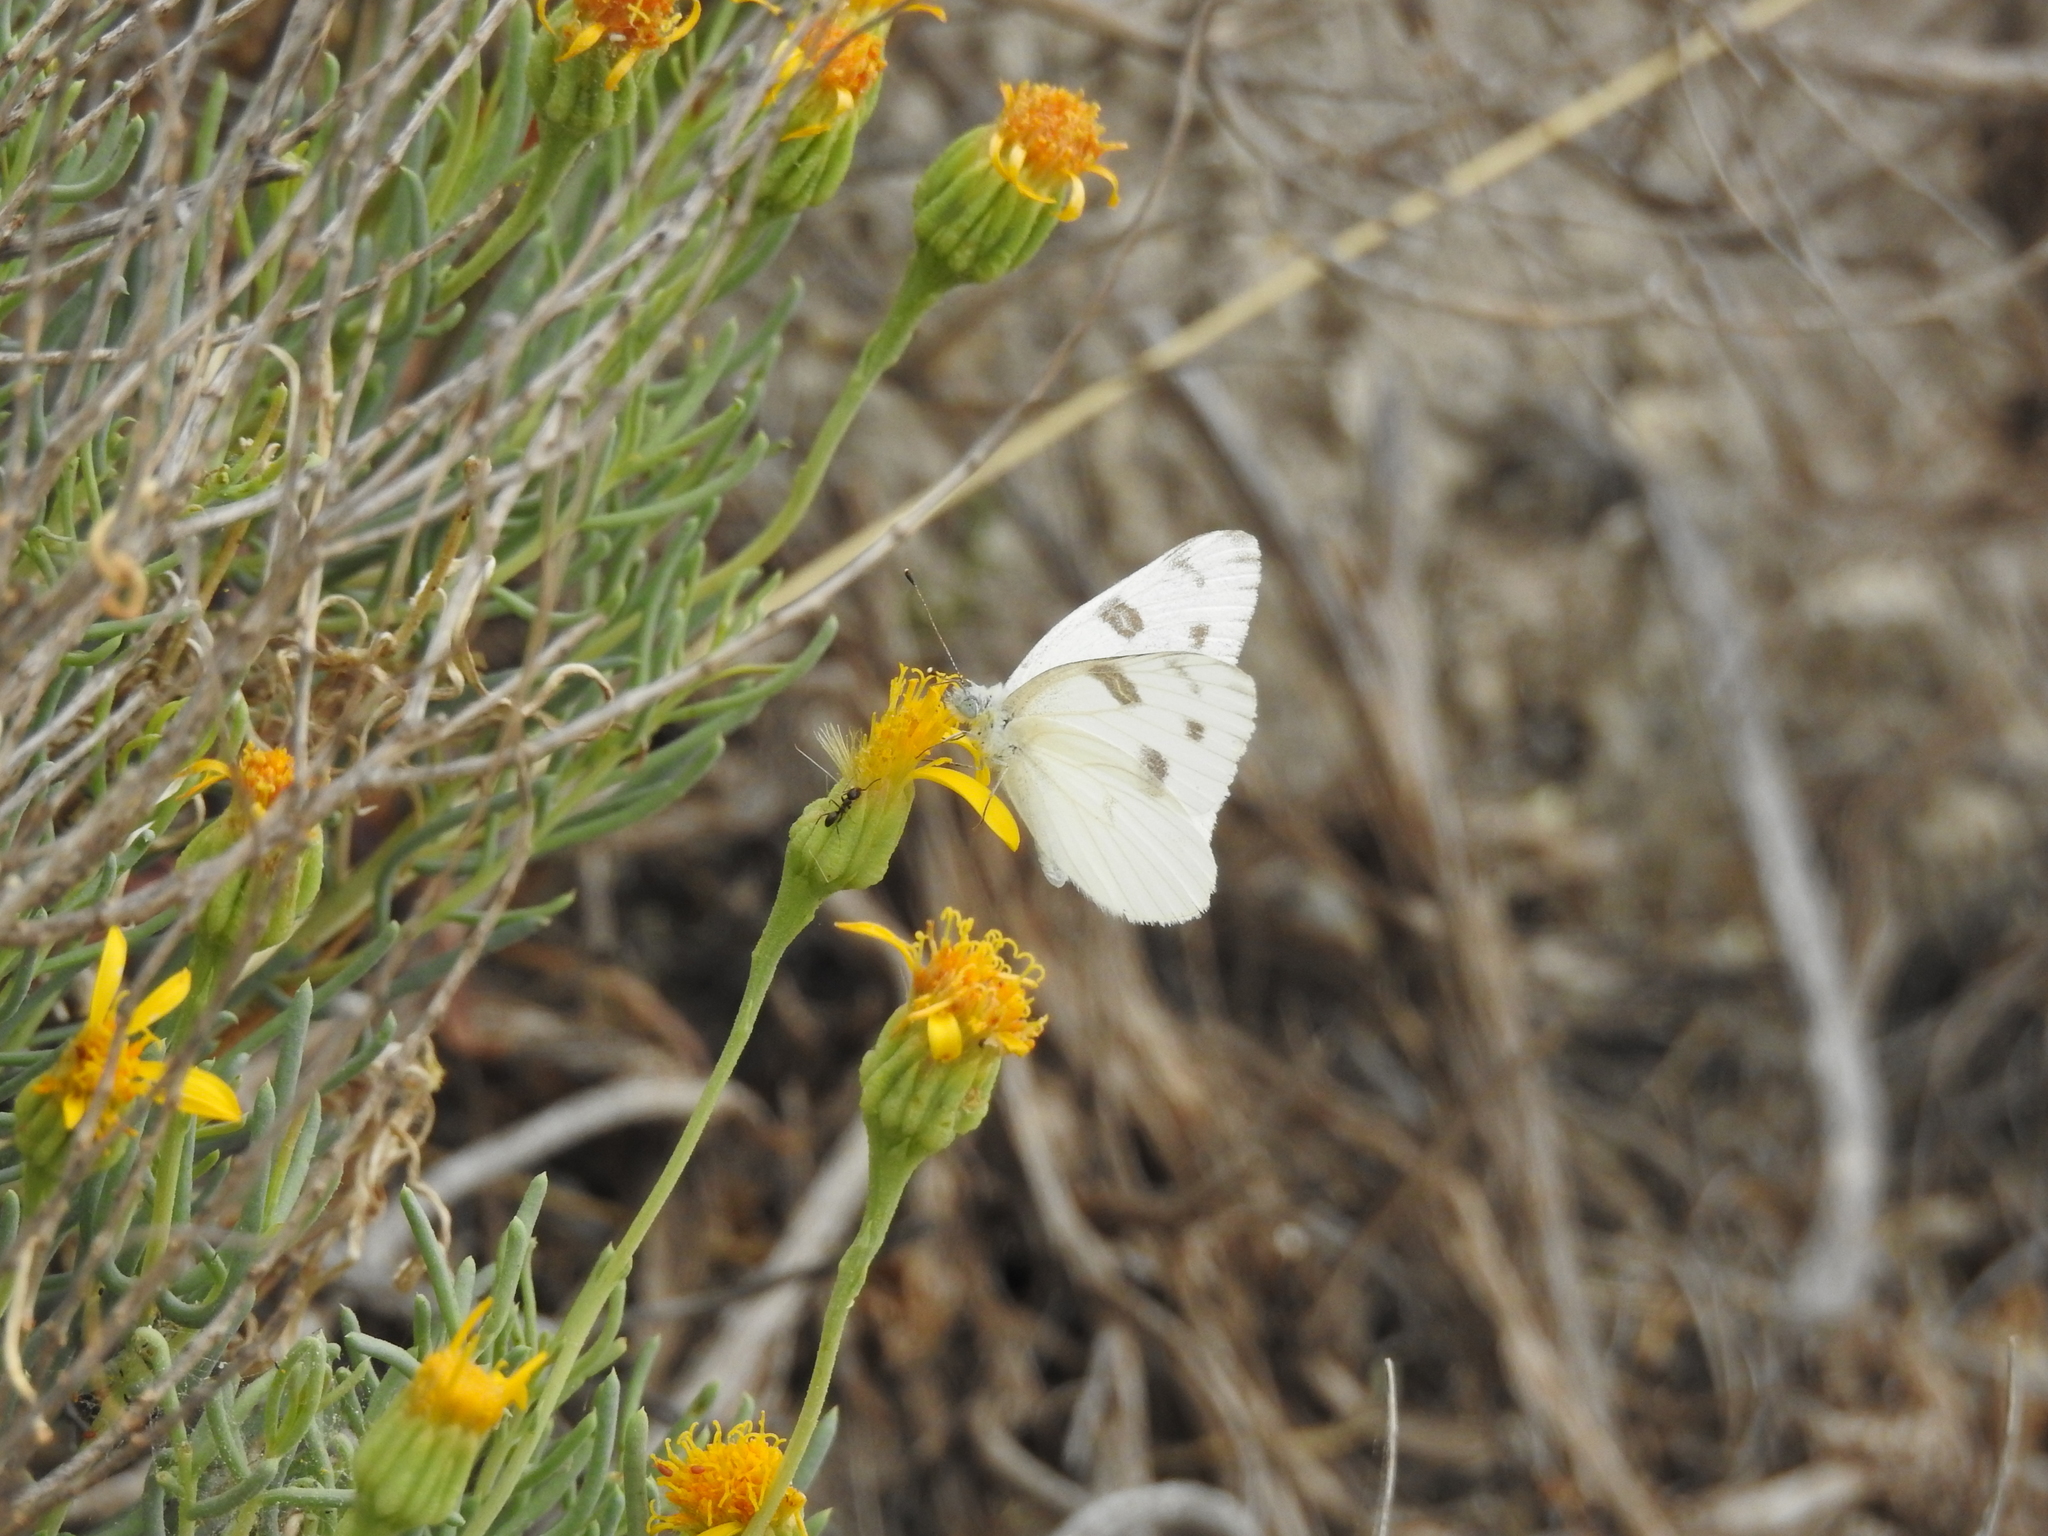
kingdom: Animalia
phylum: Arthropoda
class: Insecta
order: Lepidoptera
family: Pieridae
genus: Pontia
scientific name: Pontia protodice
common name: Checkered white
